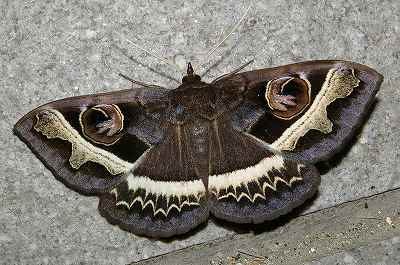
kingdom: Animalia
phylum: Arthropoda
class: Insecta
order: Lepidoptera
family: Erebidae
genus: Metopta
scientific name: Metopta rectifasciata
